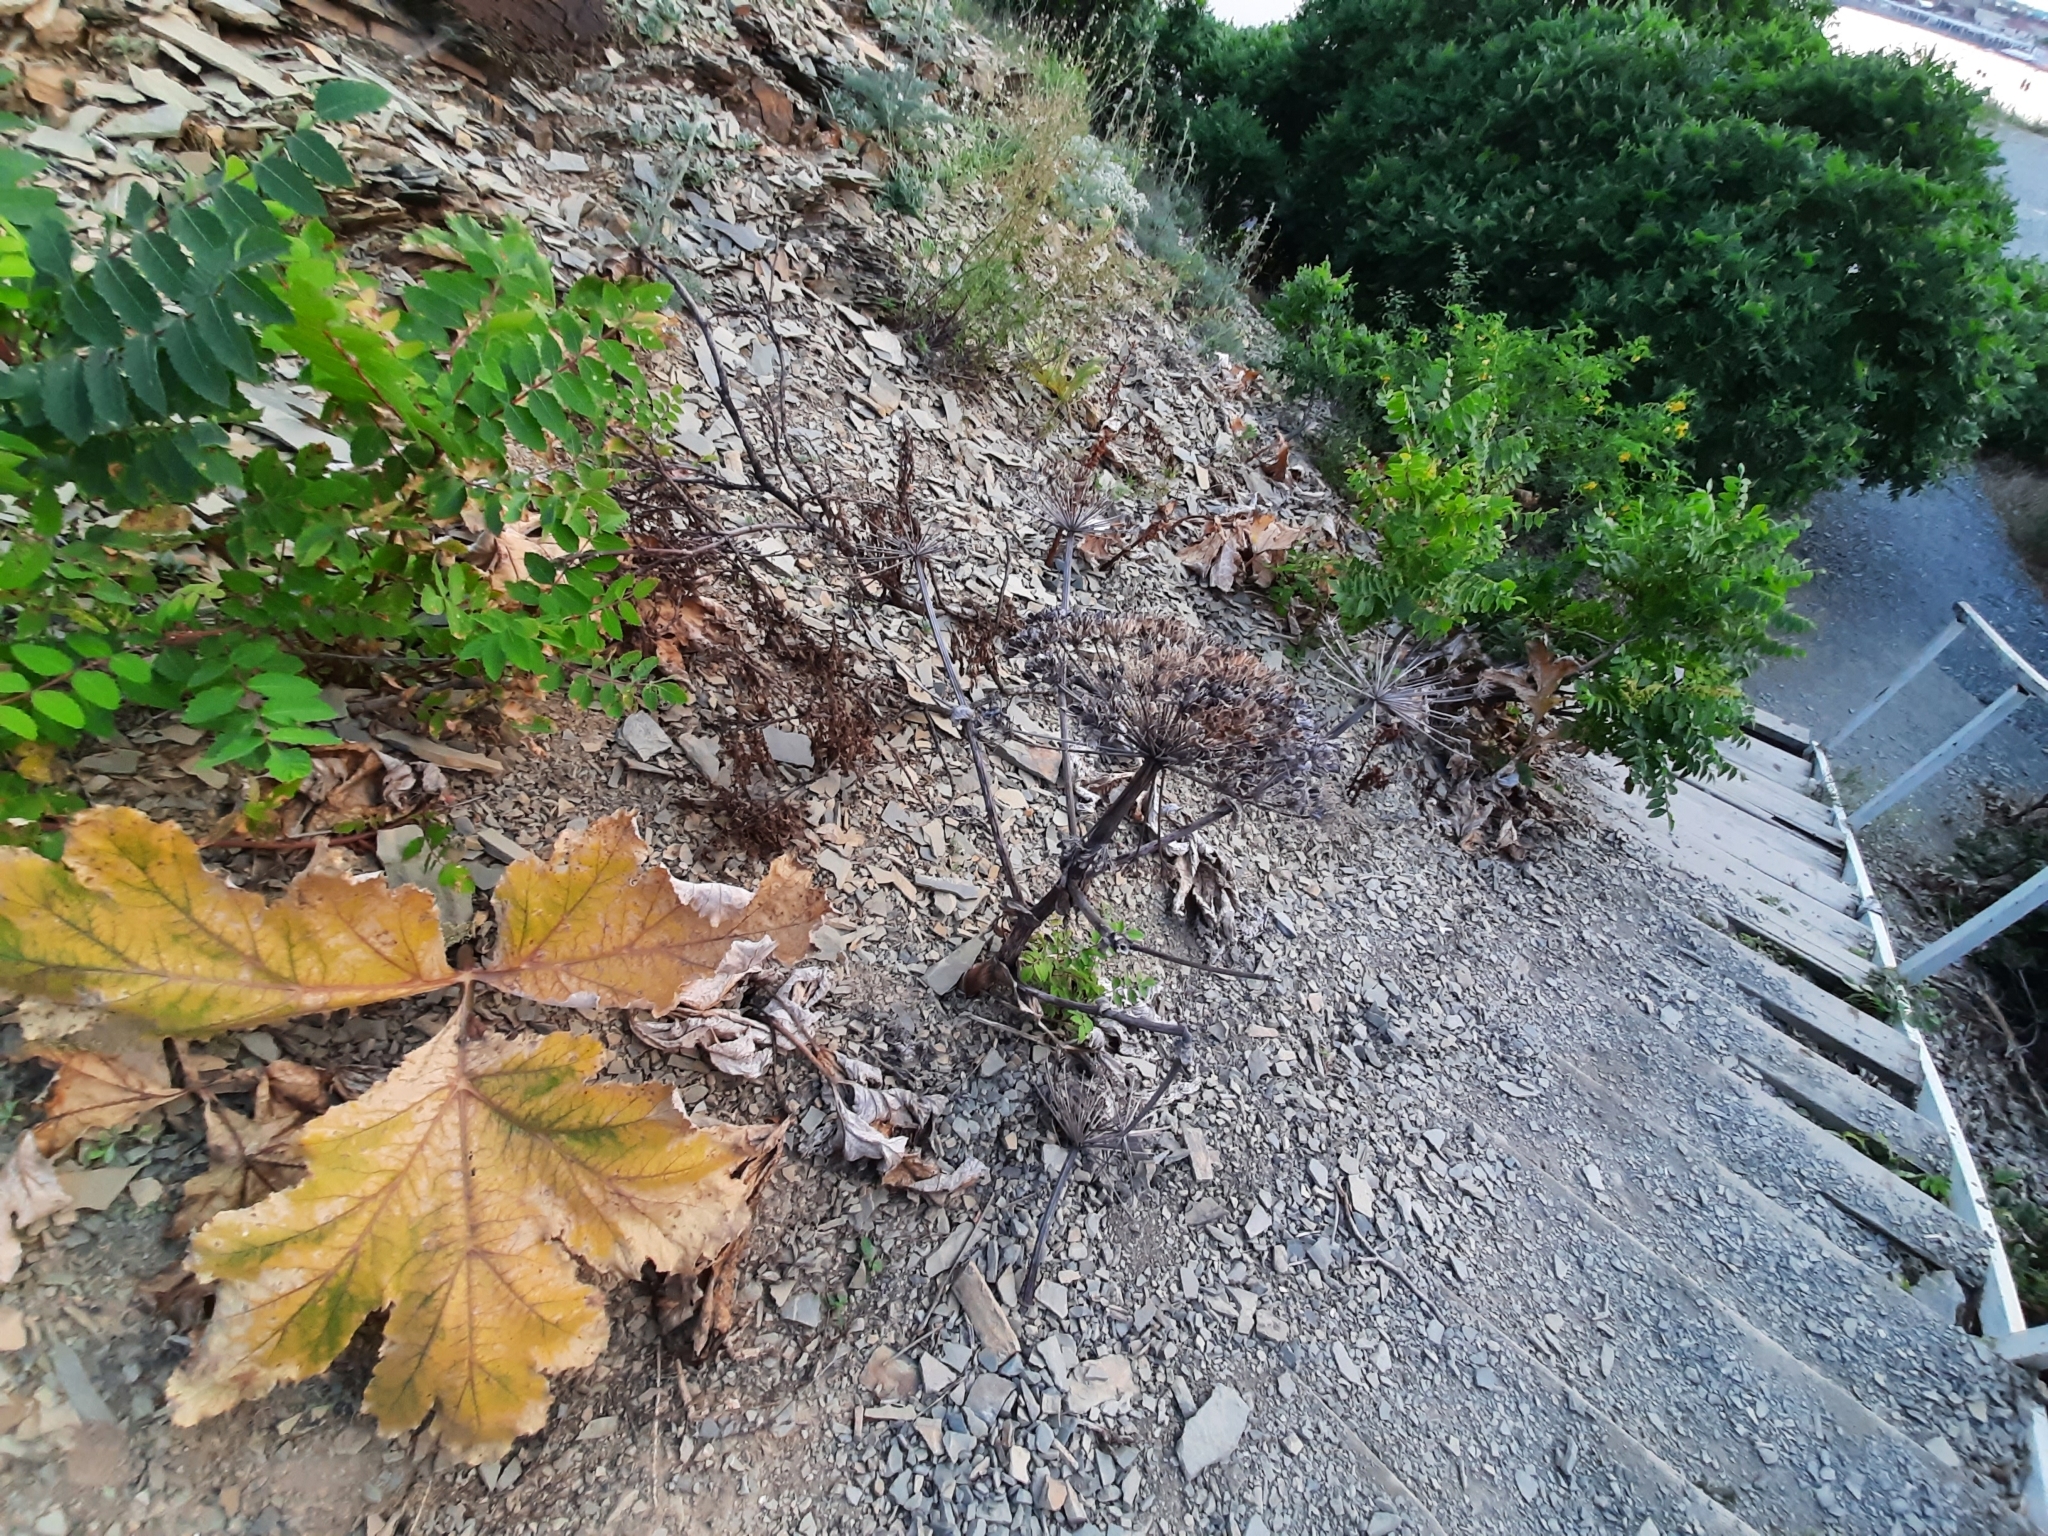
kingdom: Plantae
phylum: Tracheophyta
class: Magnoliopsida
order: Apiales
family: Apiaceae
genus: Heracleum
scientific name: Heracleum stevenii
